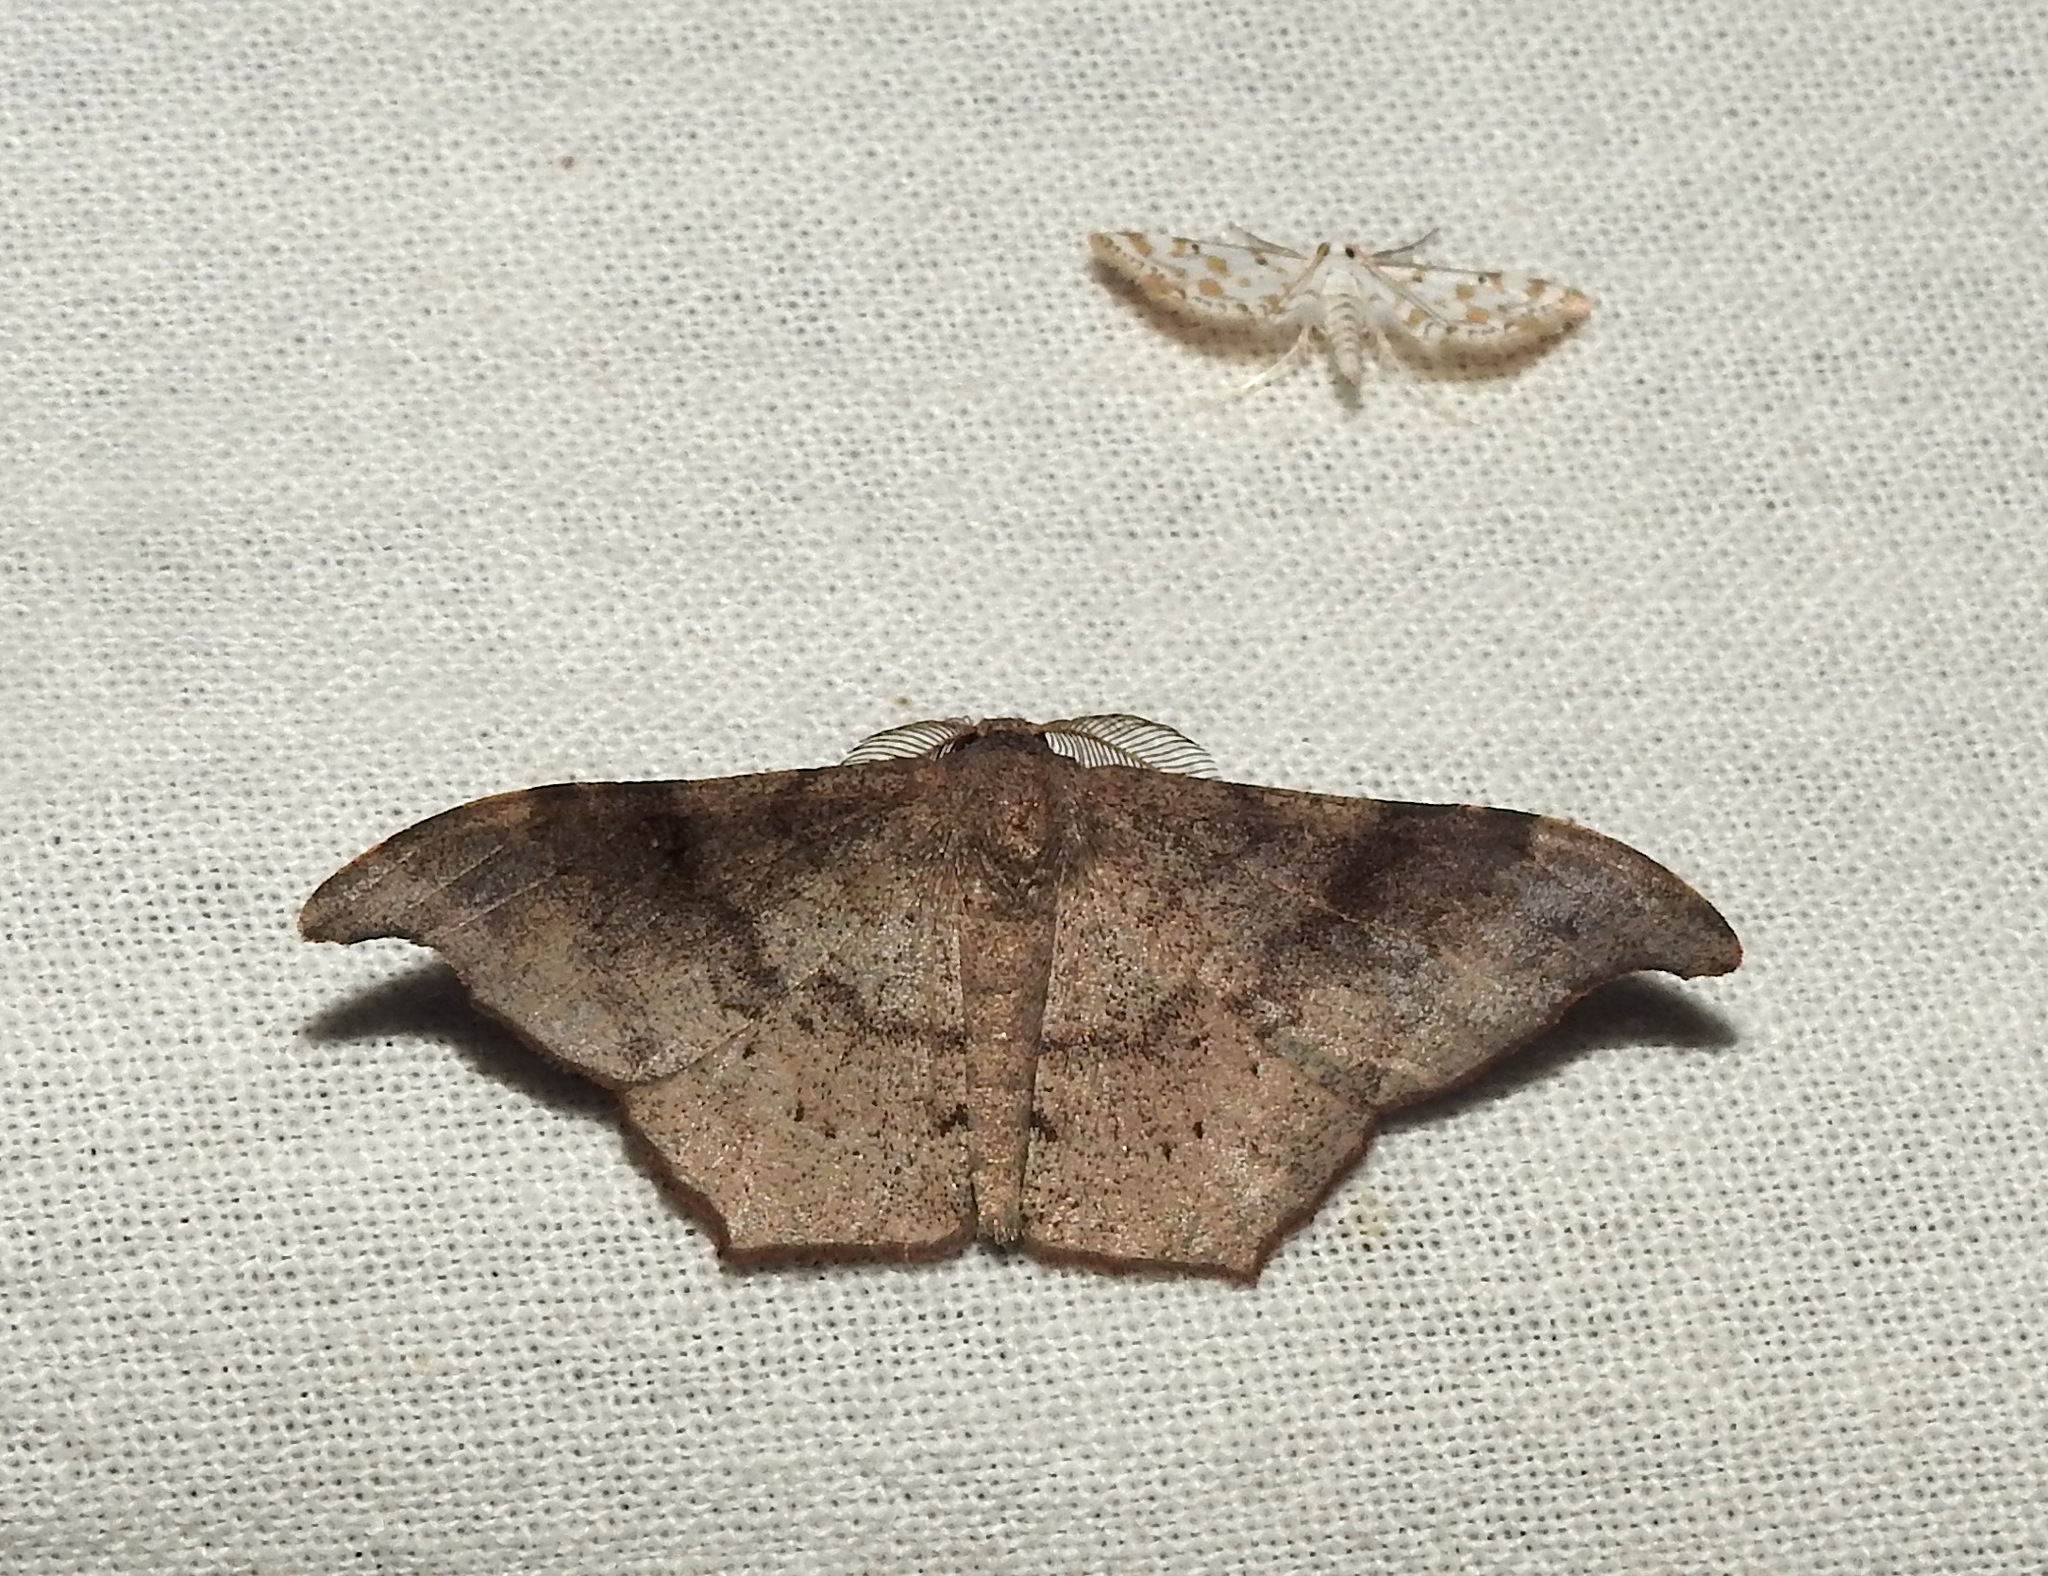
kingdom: Animalia
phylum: Arthropoda
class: Insecta
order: Lepidoptera
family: Geometridae
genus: Hyposidra
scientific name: Hyposidra talaca
